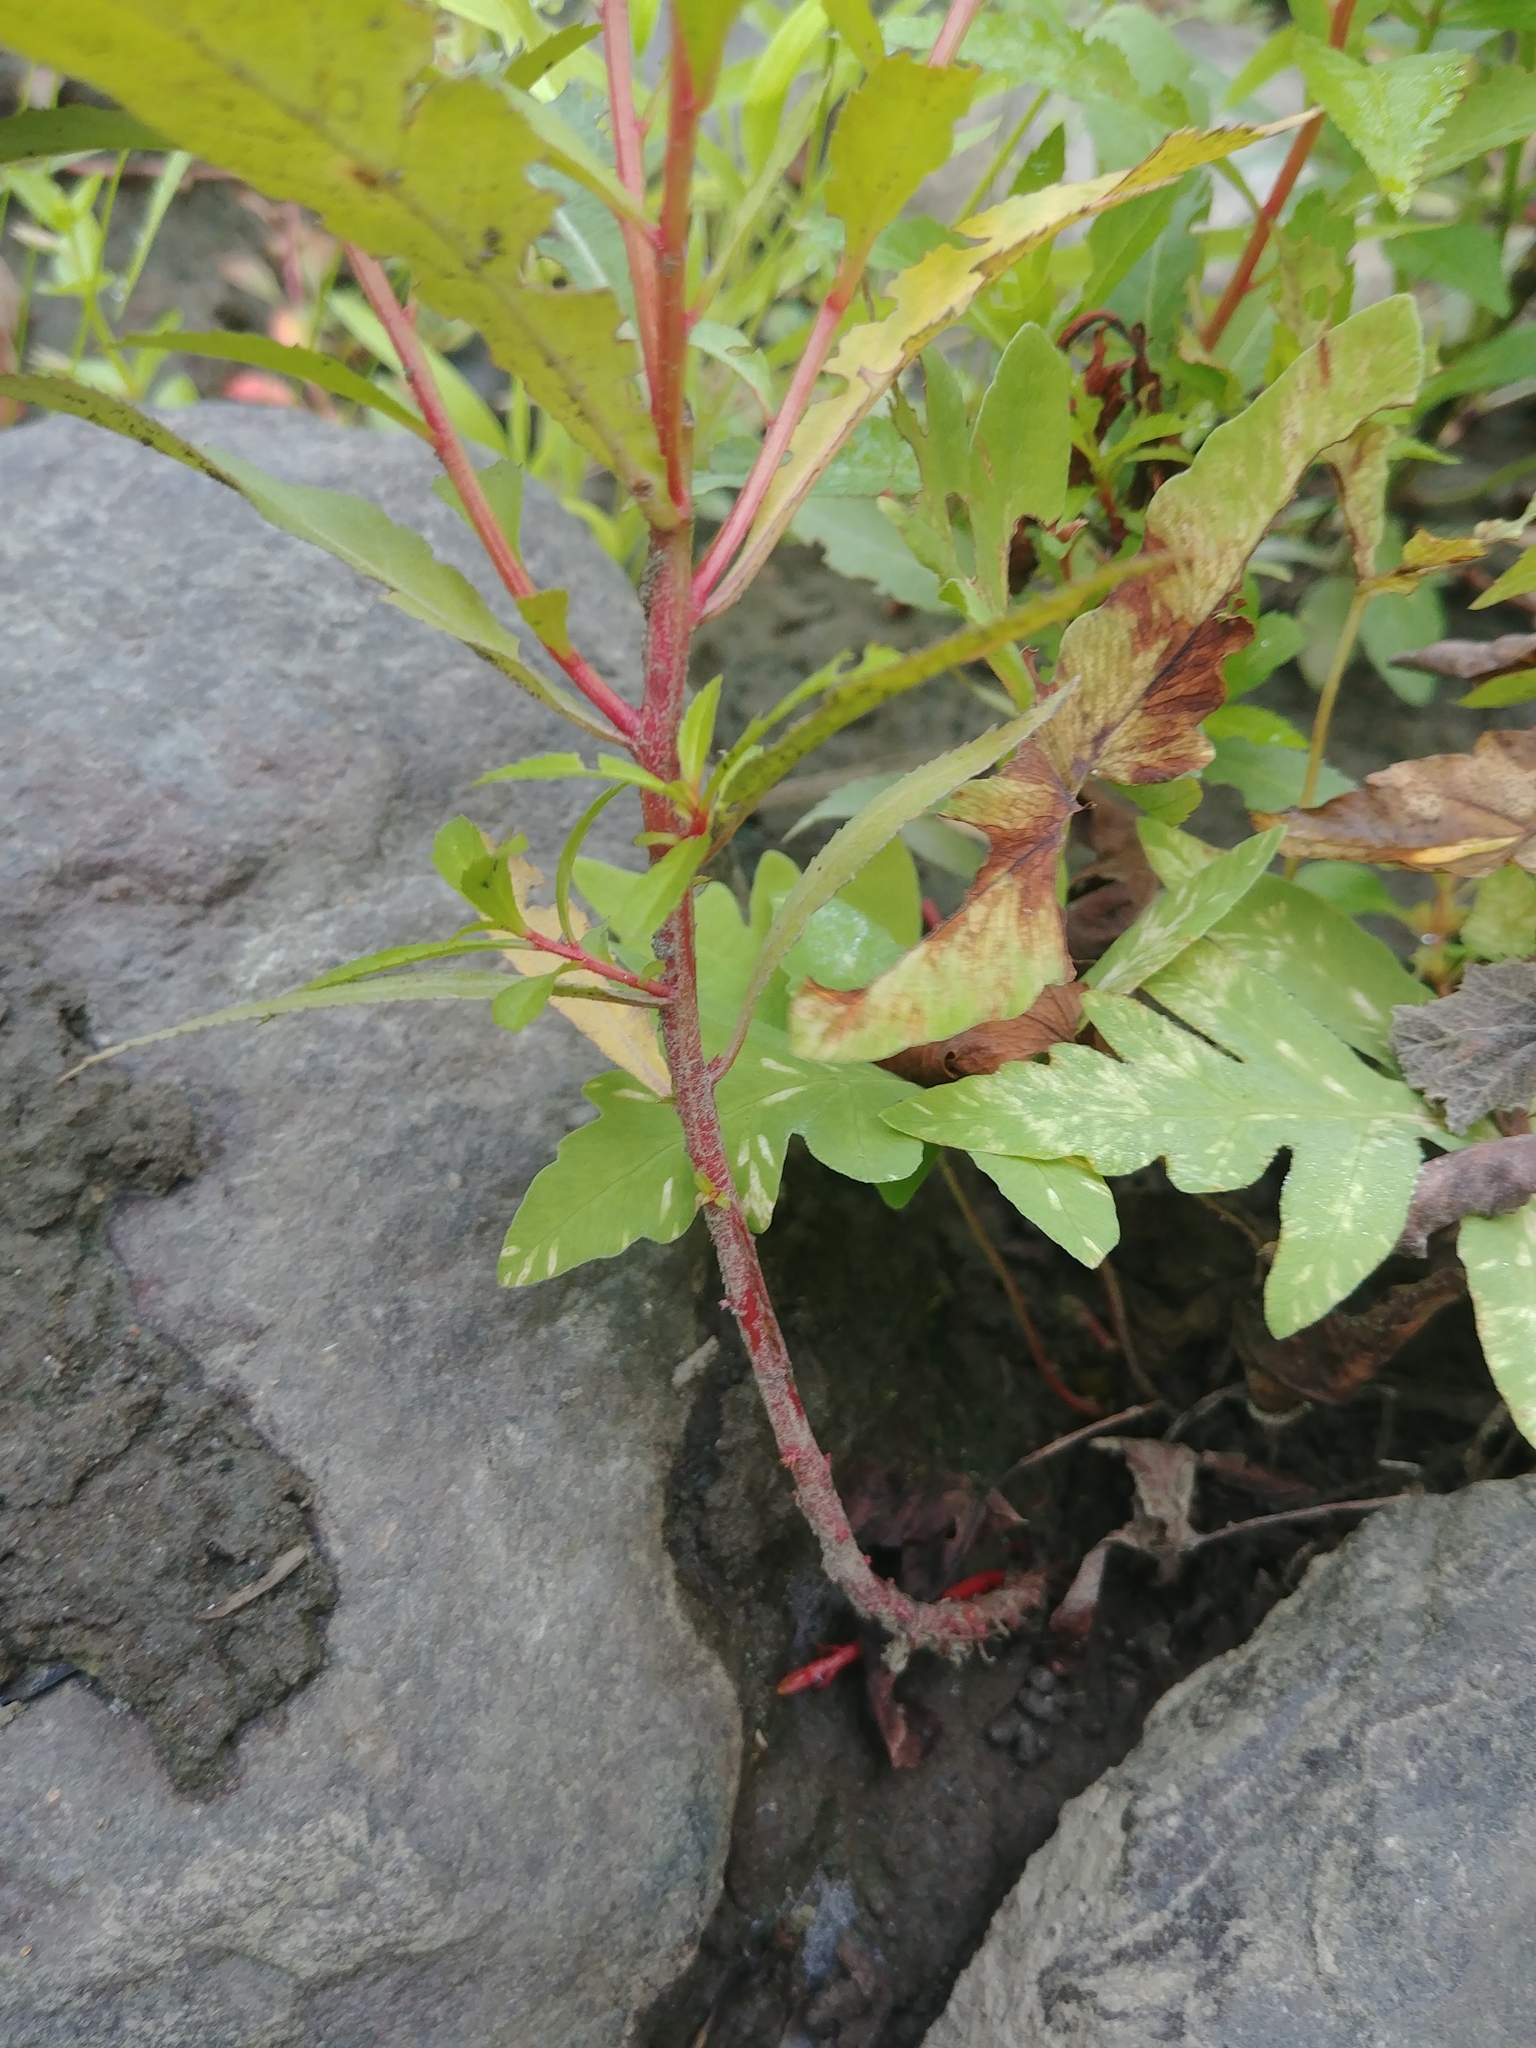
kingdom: Plantae
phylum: Tracheophyta
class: Magnoliopsida
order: Saxifragales
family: Penthoraceae
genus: Penthorum
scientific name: Penthorum sedoides
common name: Ditch stonecrop
